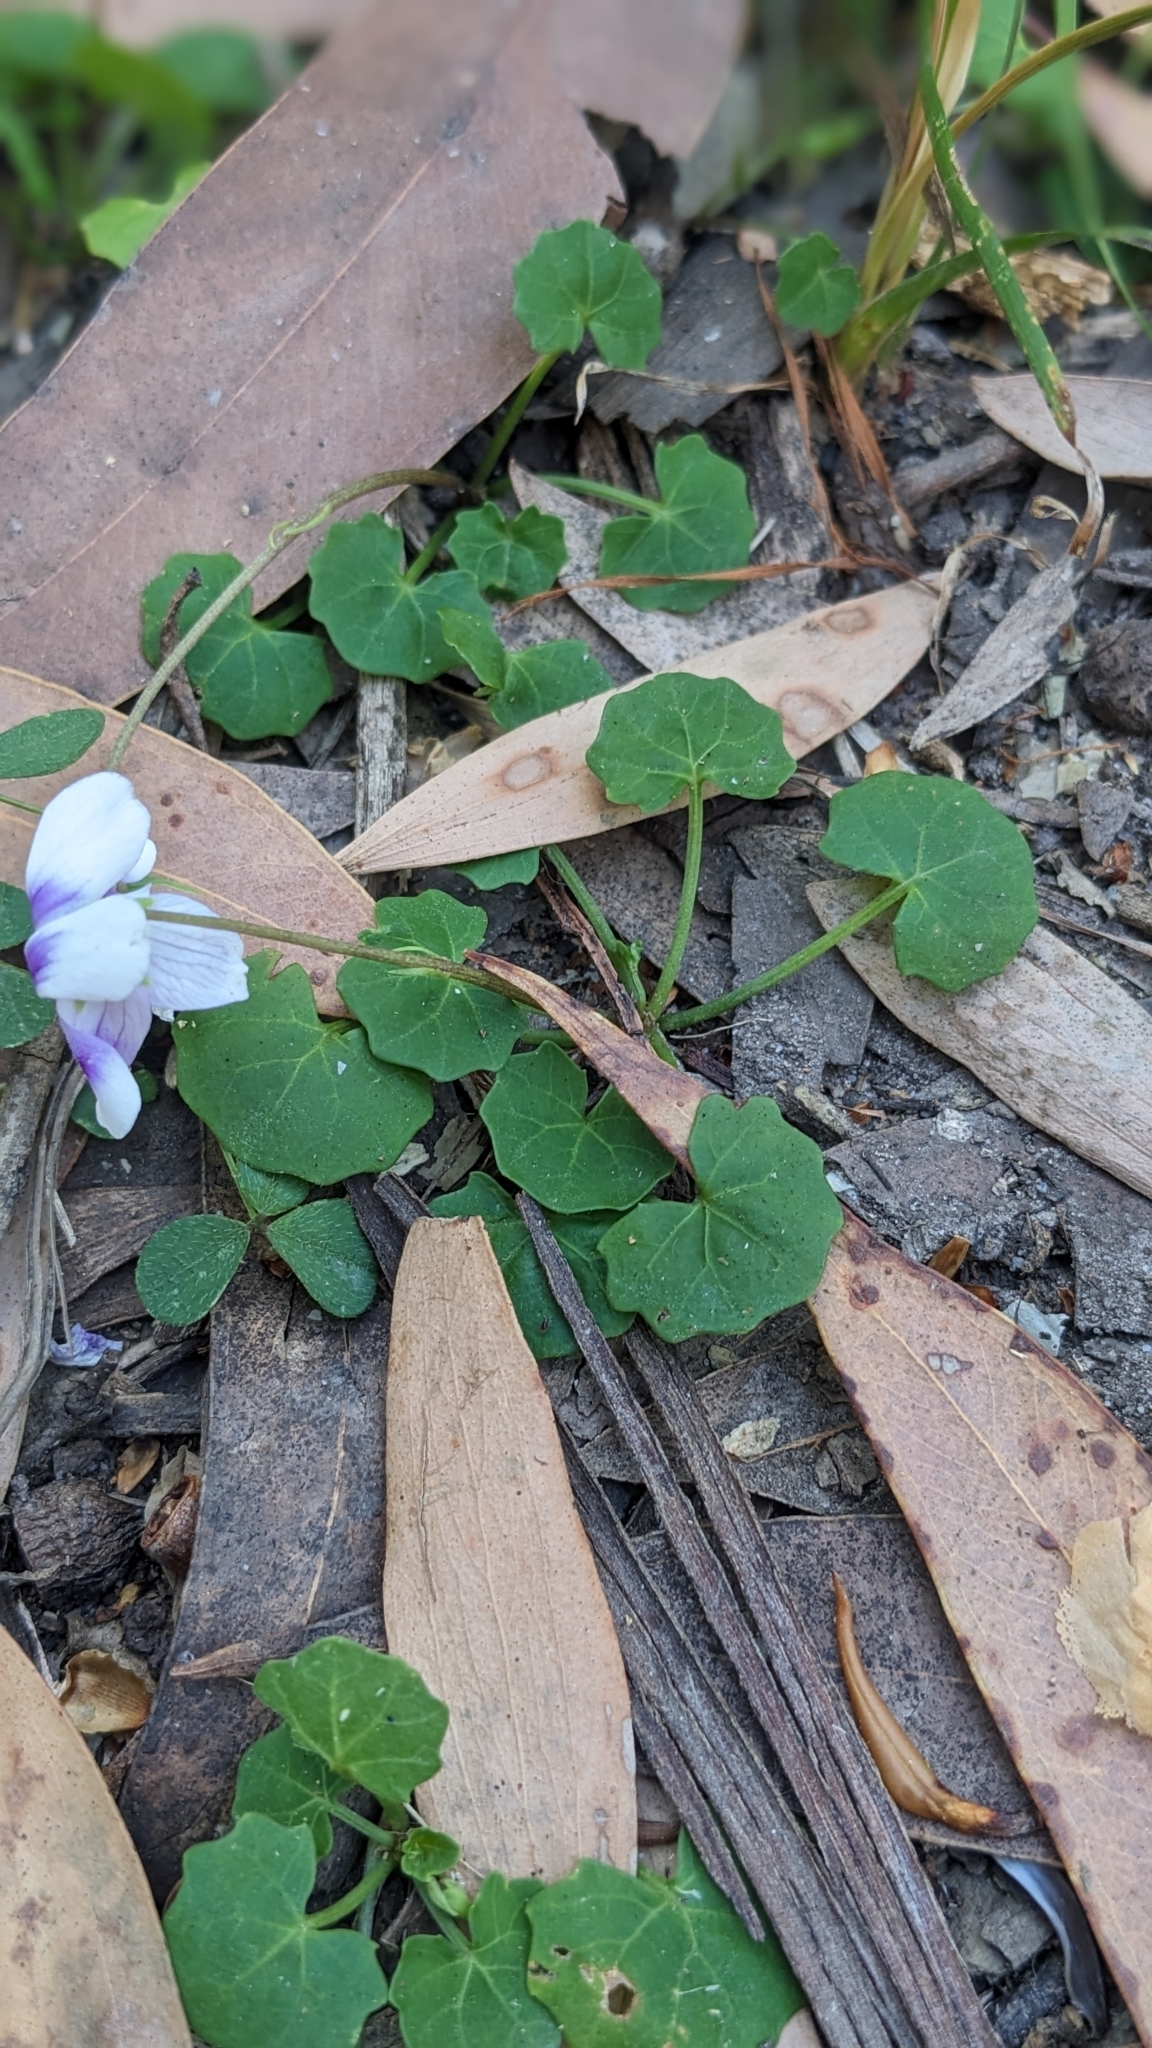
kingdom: Plantae
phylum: Tracheophyta
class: Magnoliopsida
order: Malpighiales
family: Violaceae
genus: Viola
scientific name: Viola banksii
